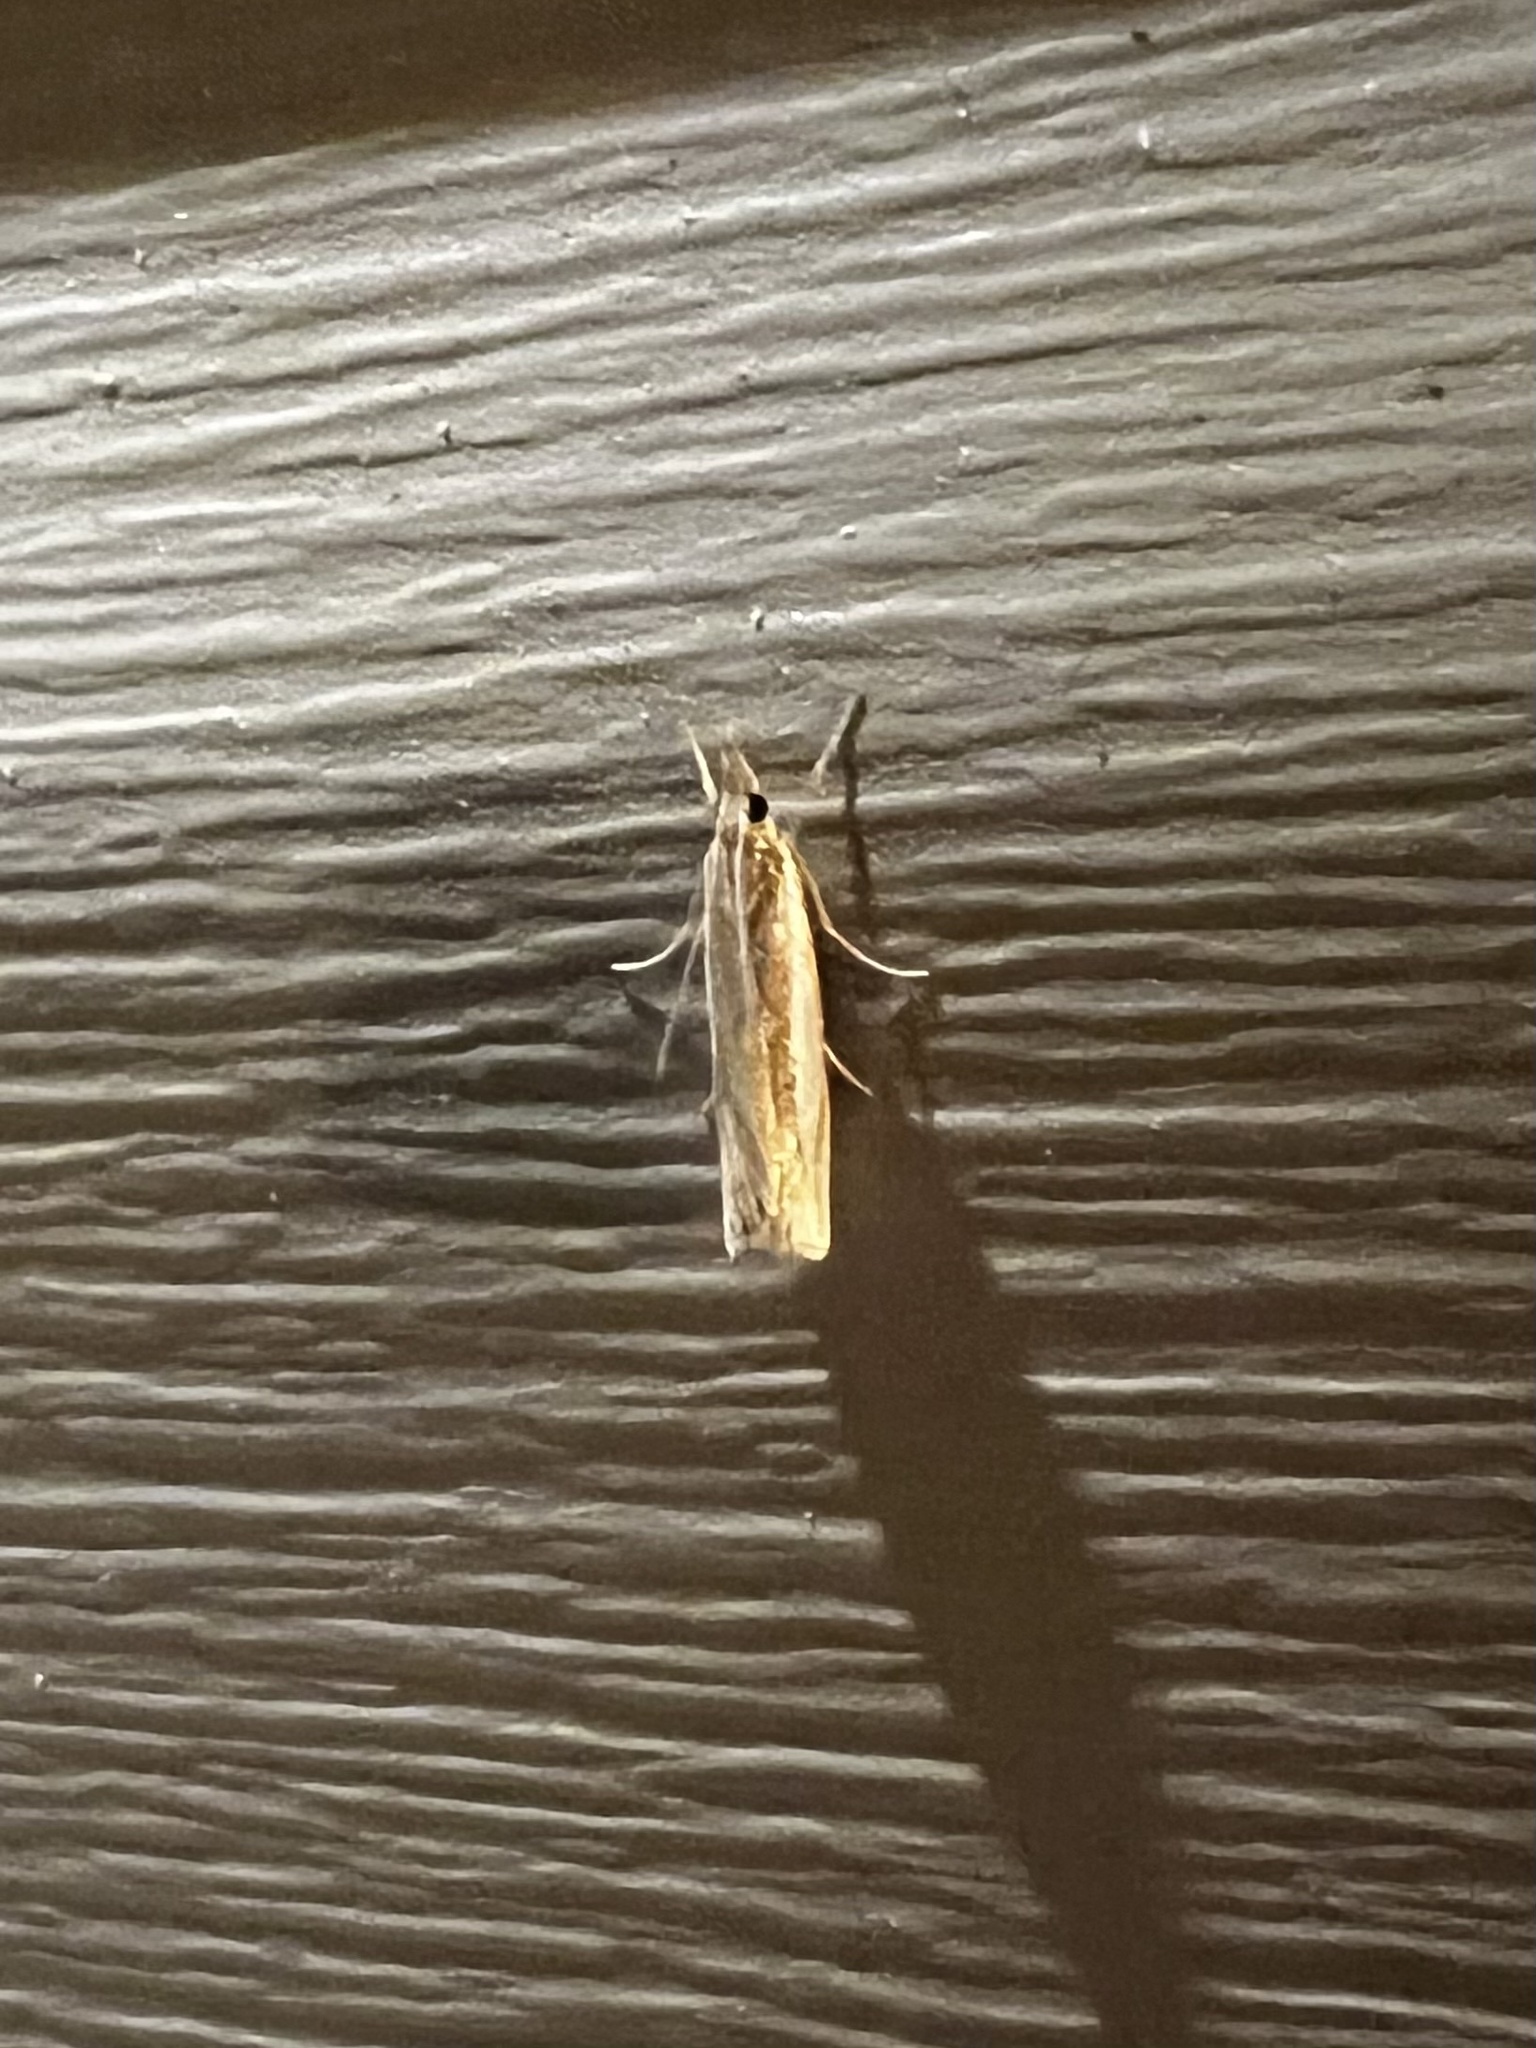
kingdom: Animalia
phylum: Arthropoda
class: Insecta
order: Lepidoptera
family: Crambidae
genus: Crambus
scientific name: Crambus
